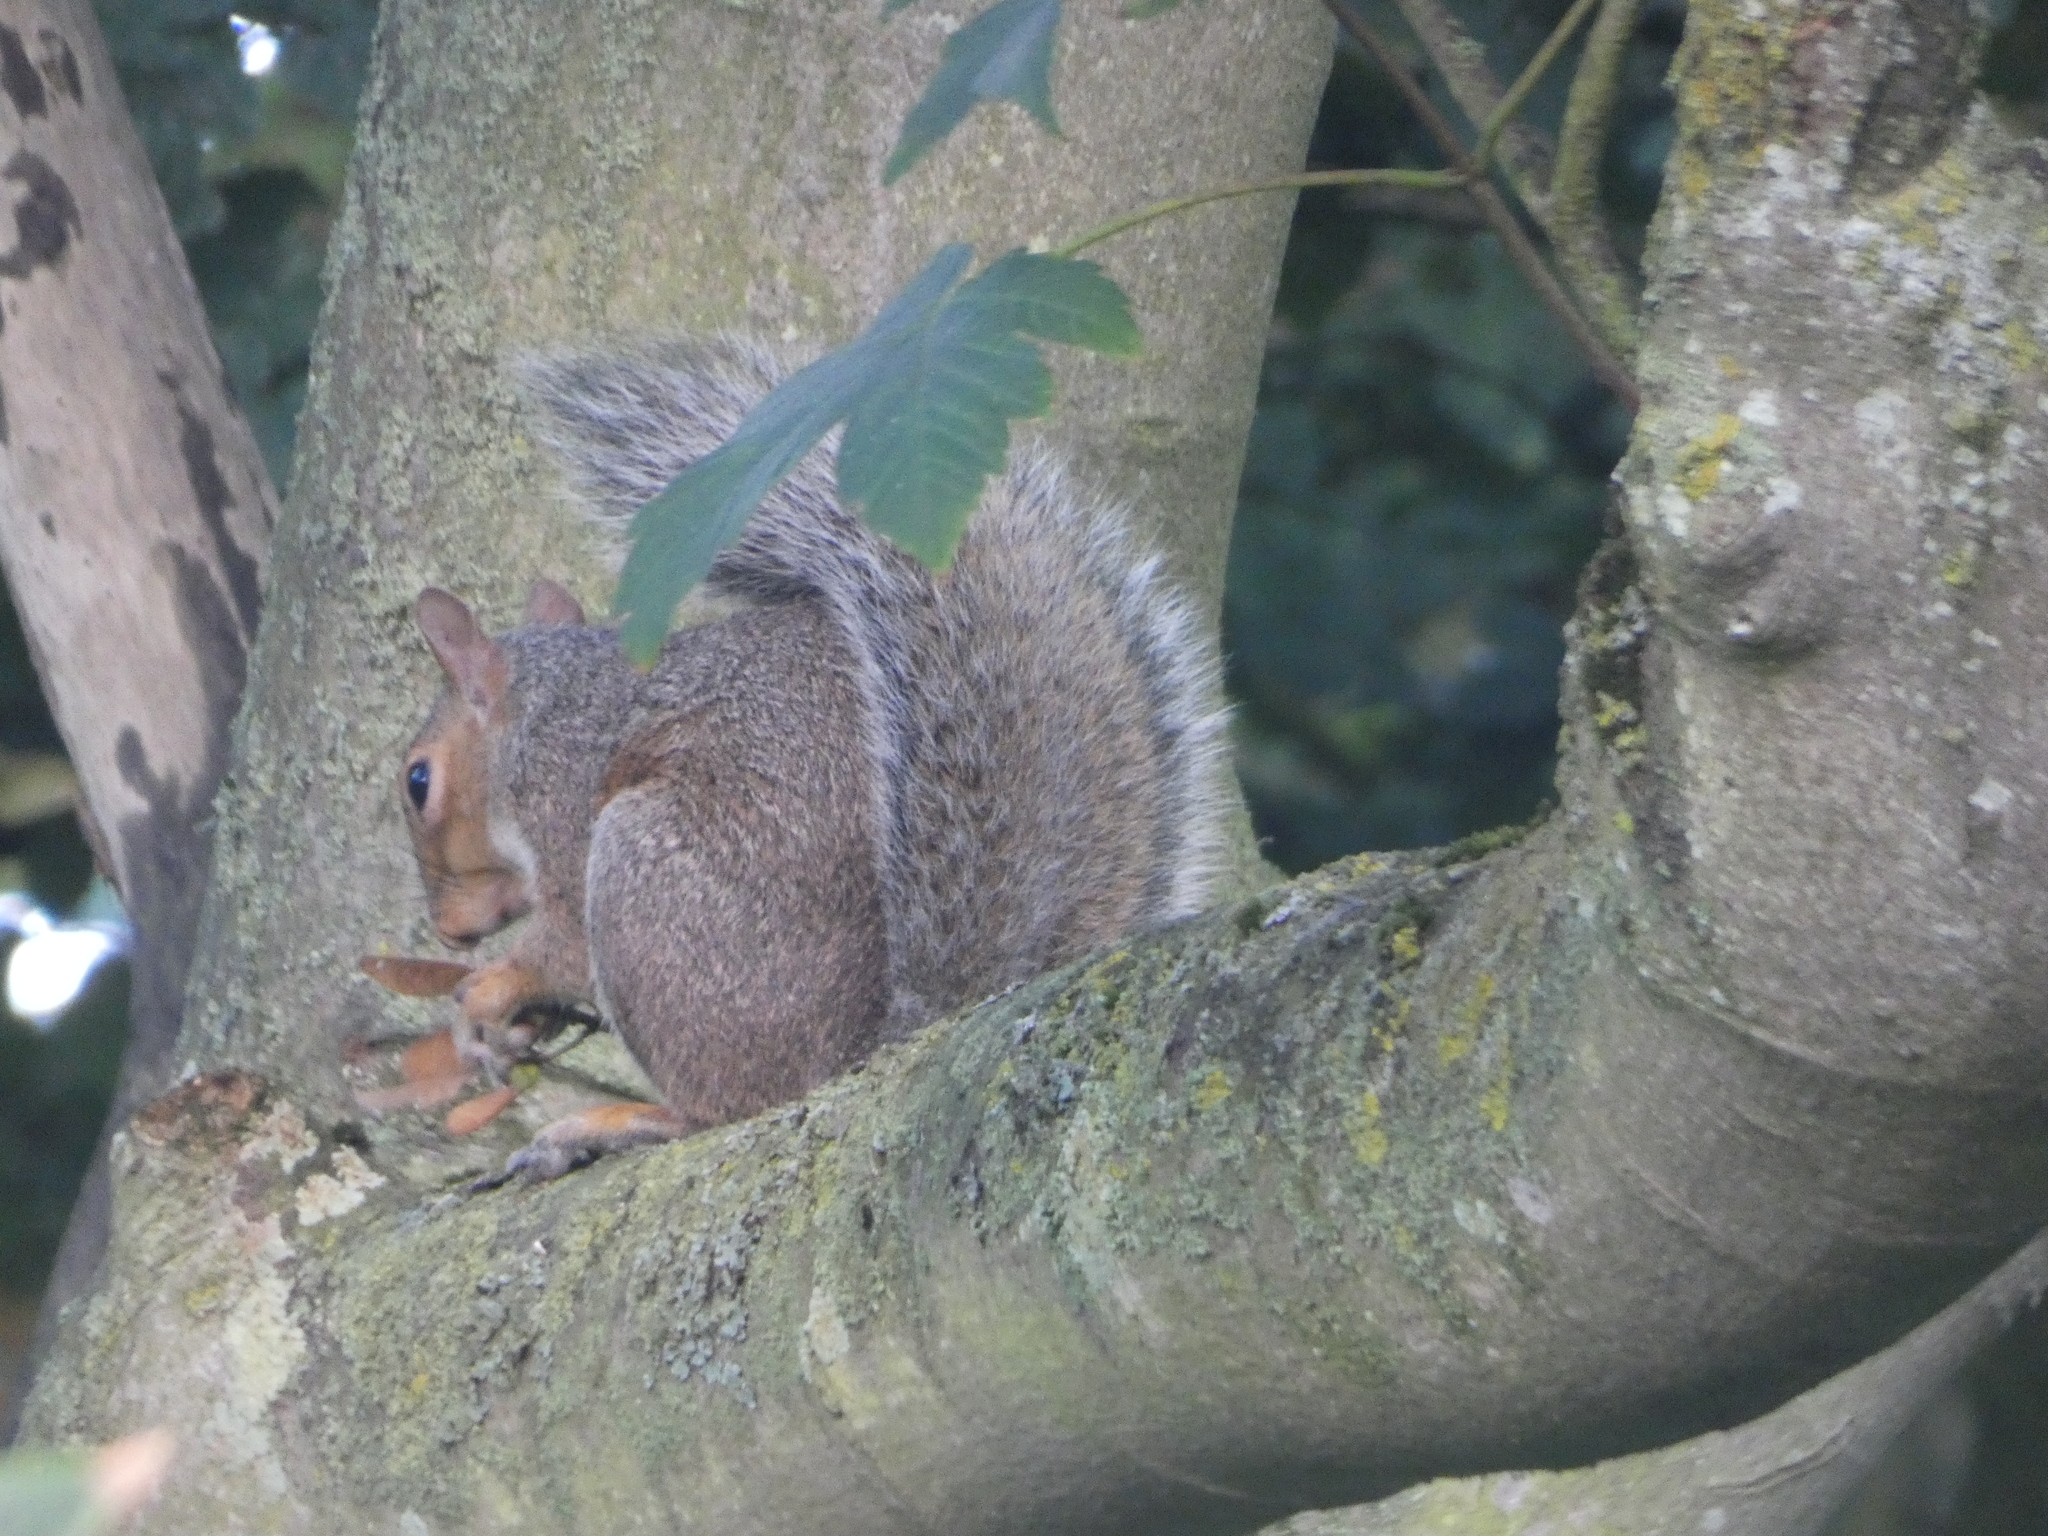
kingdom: Animalia
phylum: Chordata
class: Mammalia
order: Rodentia
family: Sciuridae
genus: Sciurus
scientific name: Sciurus carolinensis
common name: Eastern gray squirrel
